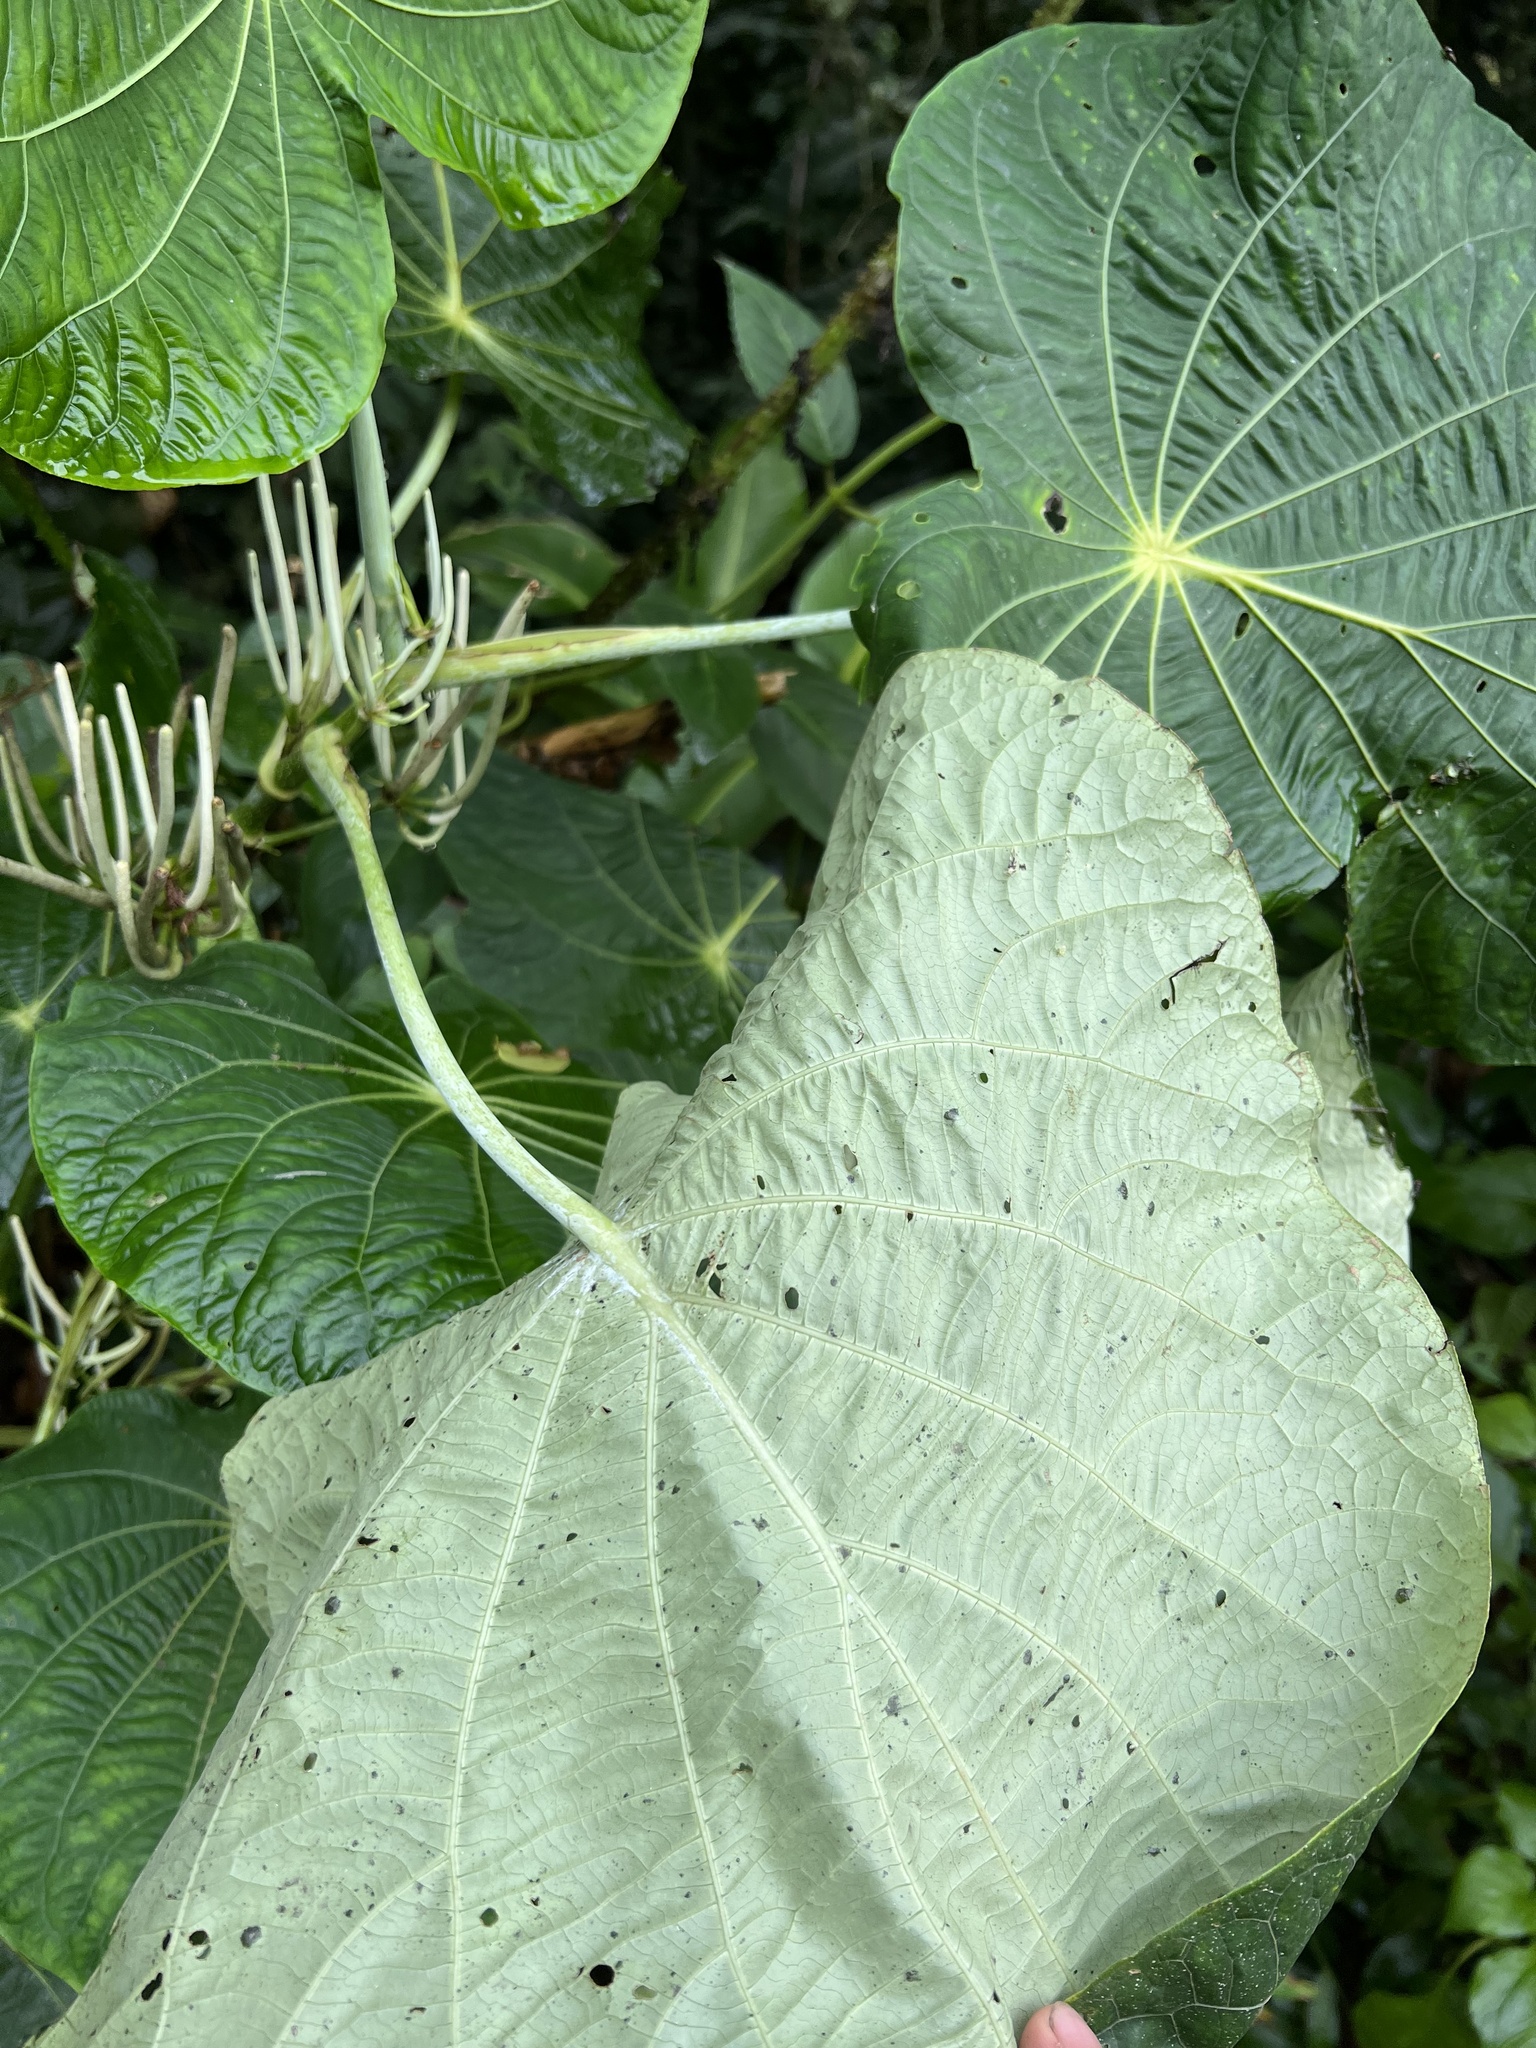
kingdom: Plantae
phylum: Tracheophyta
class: Magnoliopsida
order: Piperales
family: Piperaceae
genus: Piper
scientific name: Piper peltatum
